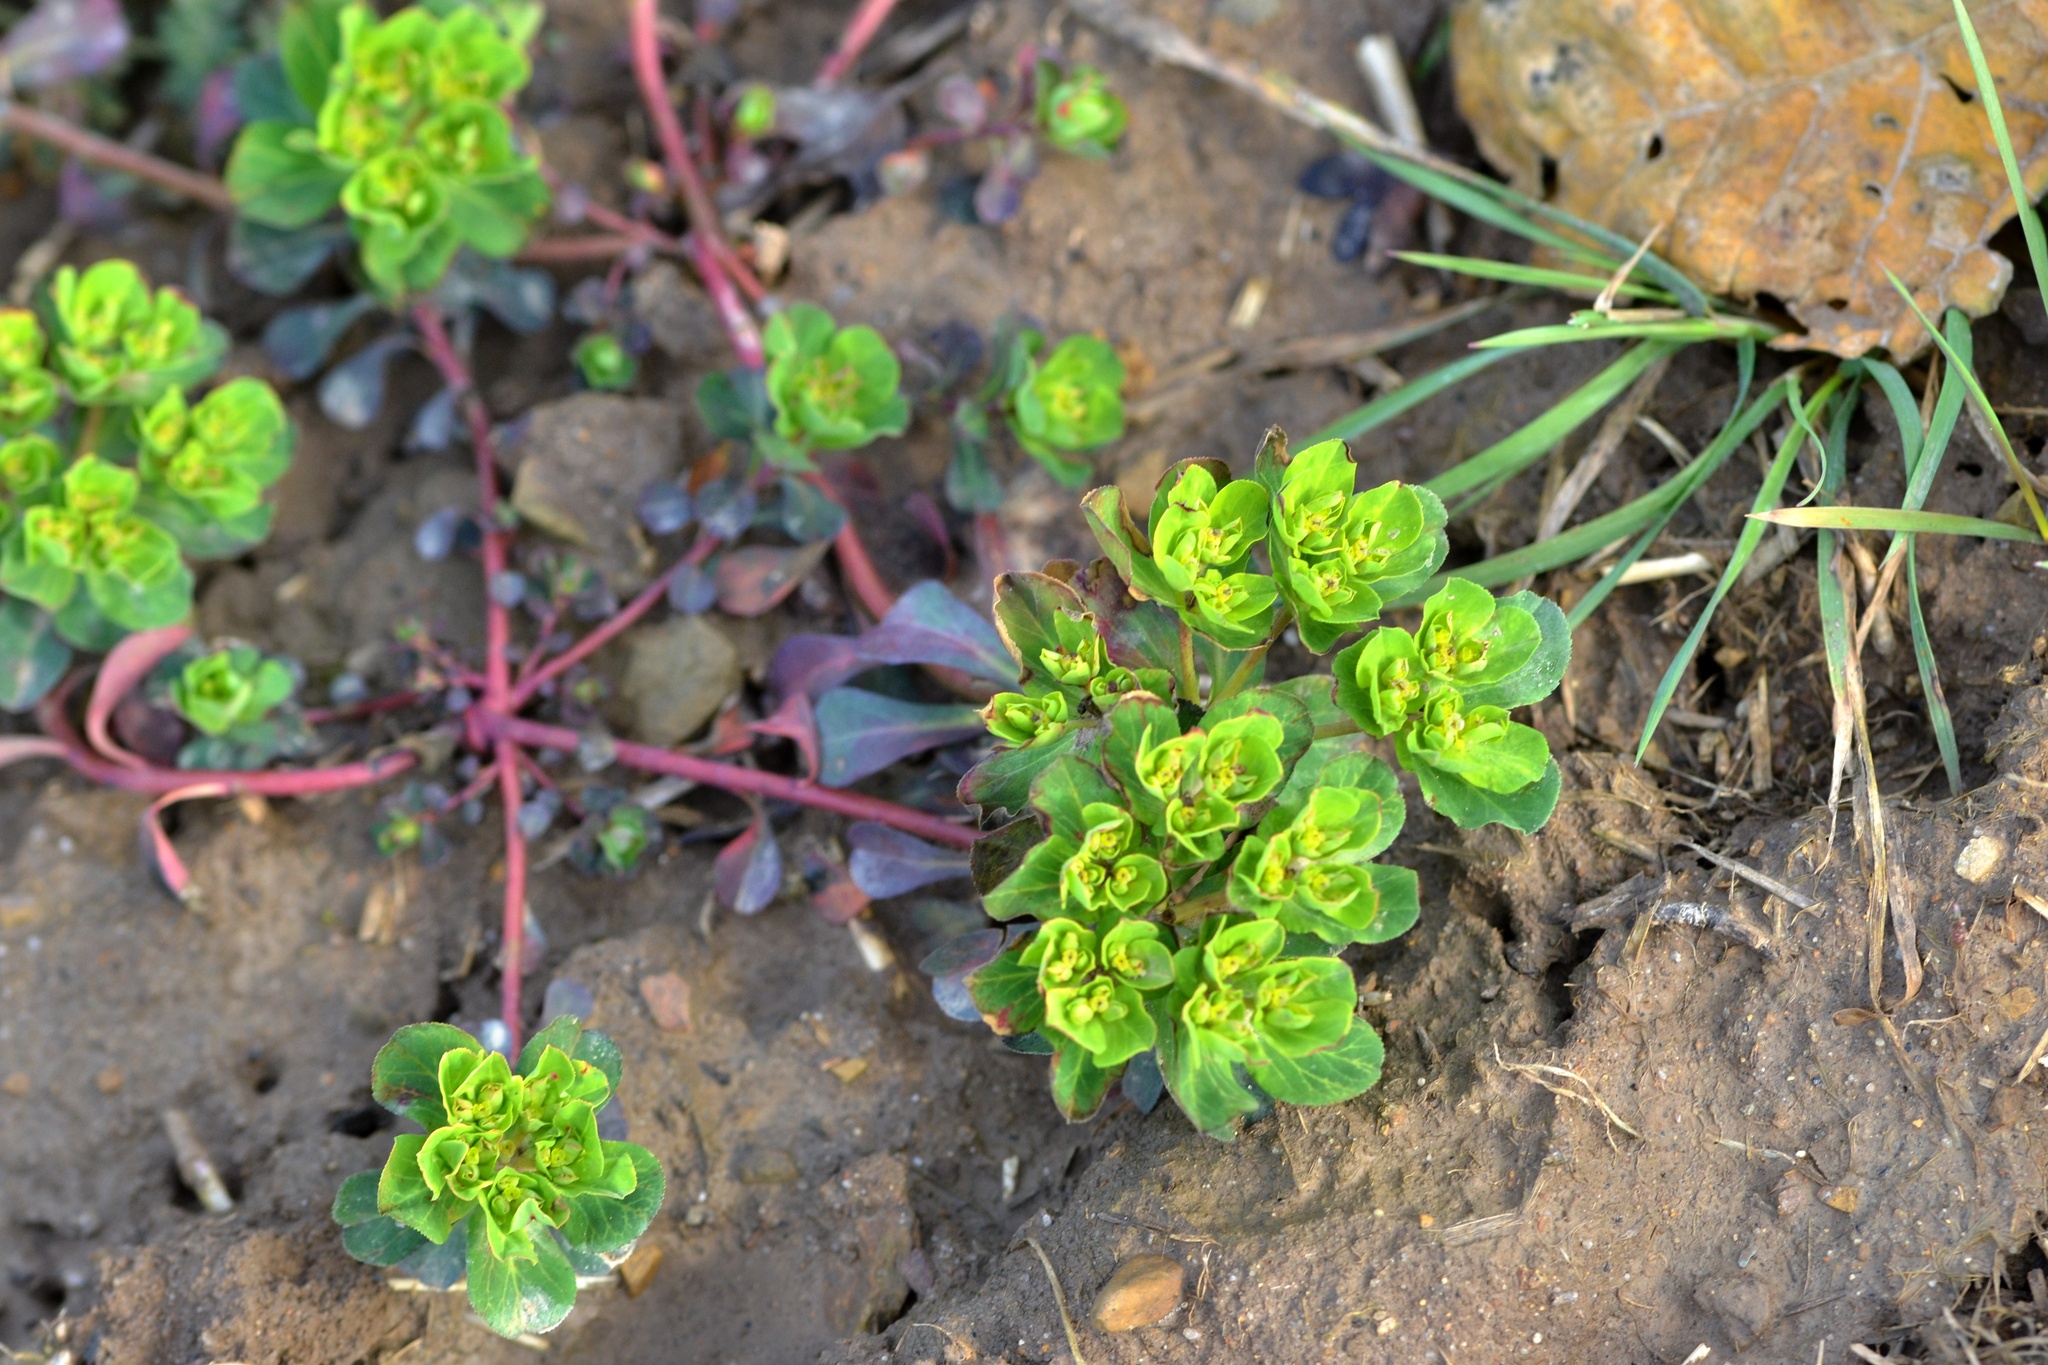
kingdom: Plantae
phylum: Tracheophyta
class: Magnoliopsida
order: Malpighiales
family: Euphorbiaceae
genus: Euphorbia
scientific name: Euphorbia helioscopia
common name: Sun spurge
